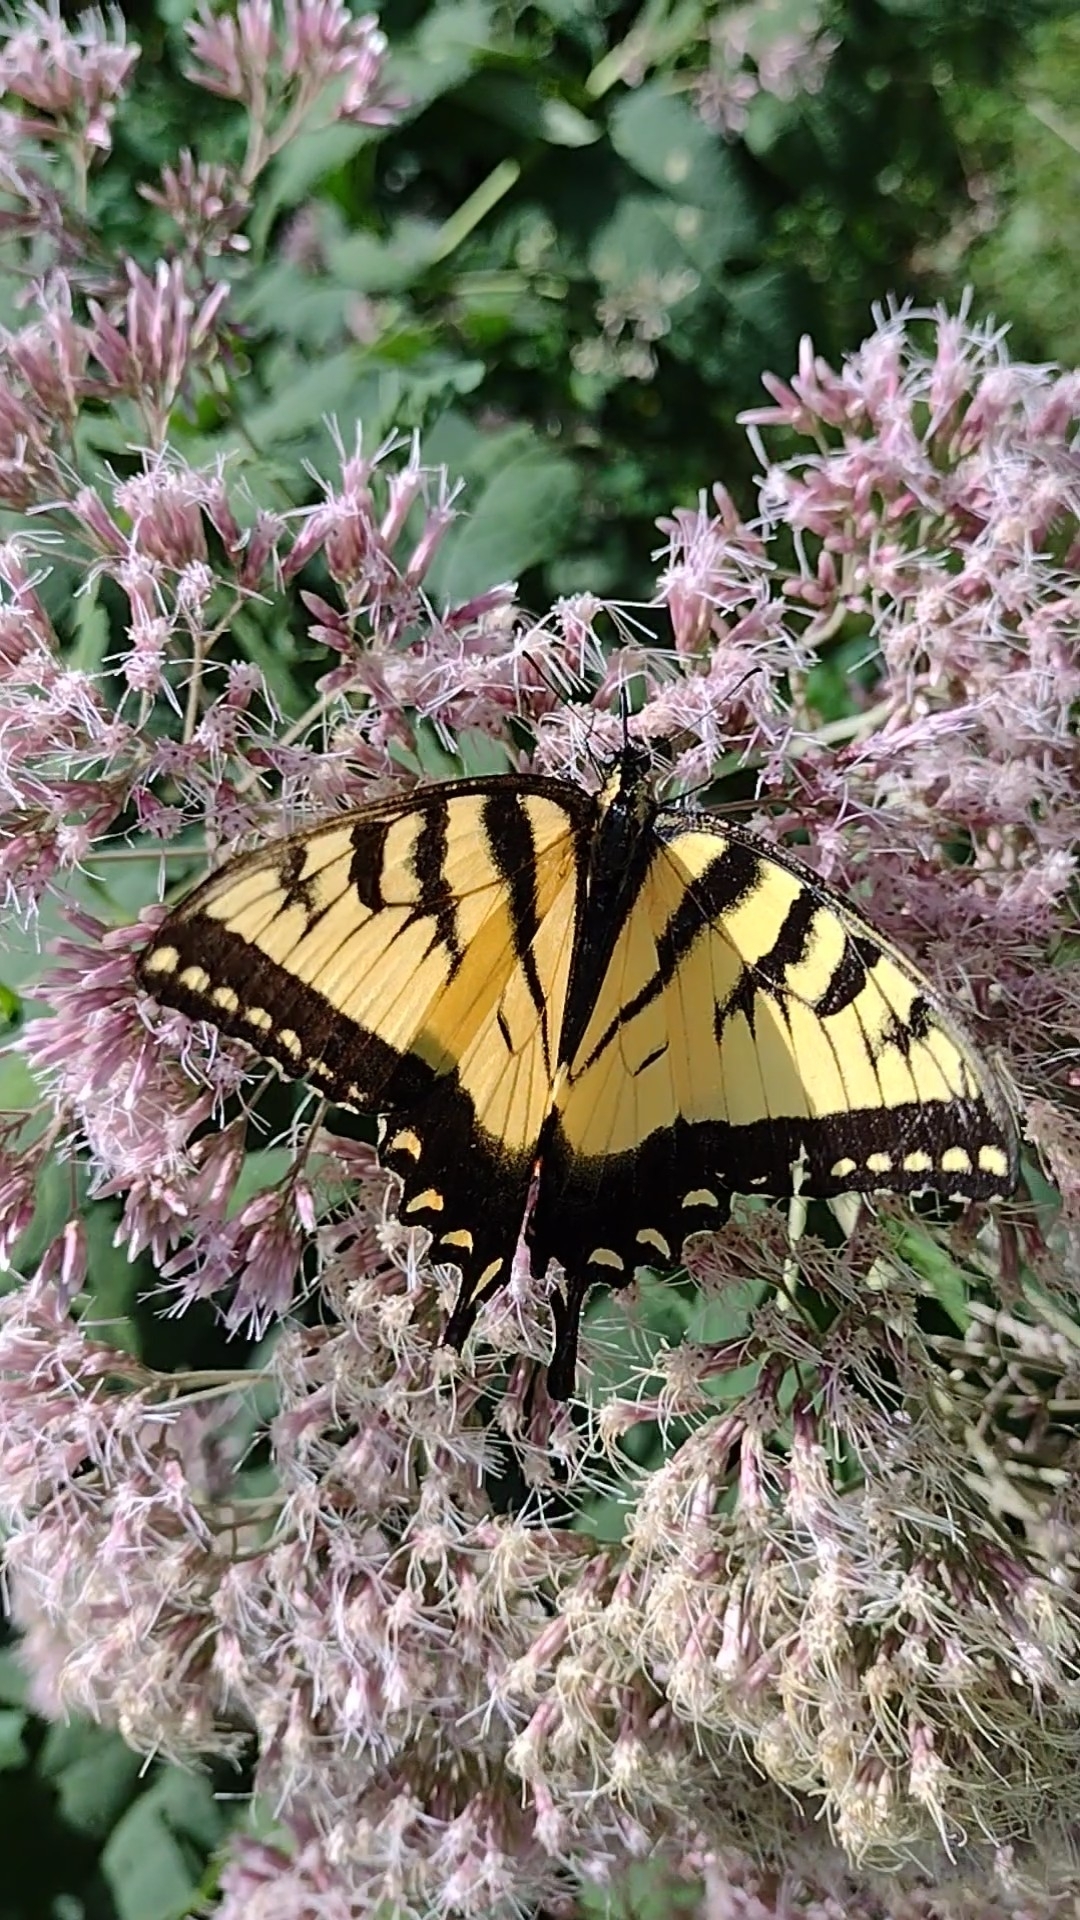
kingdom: Animalia
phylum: Arthropoda
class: Insecta
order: Lepidoptera
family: Papilionidae
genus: Papilio
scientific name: Papilio glaucus
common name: Tiger swallowtail
